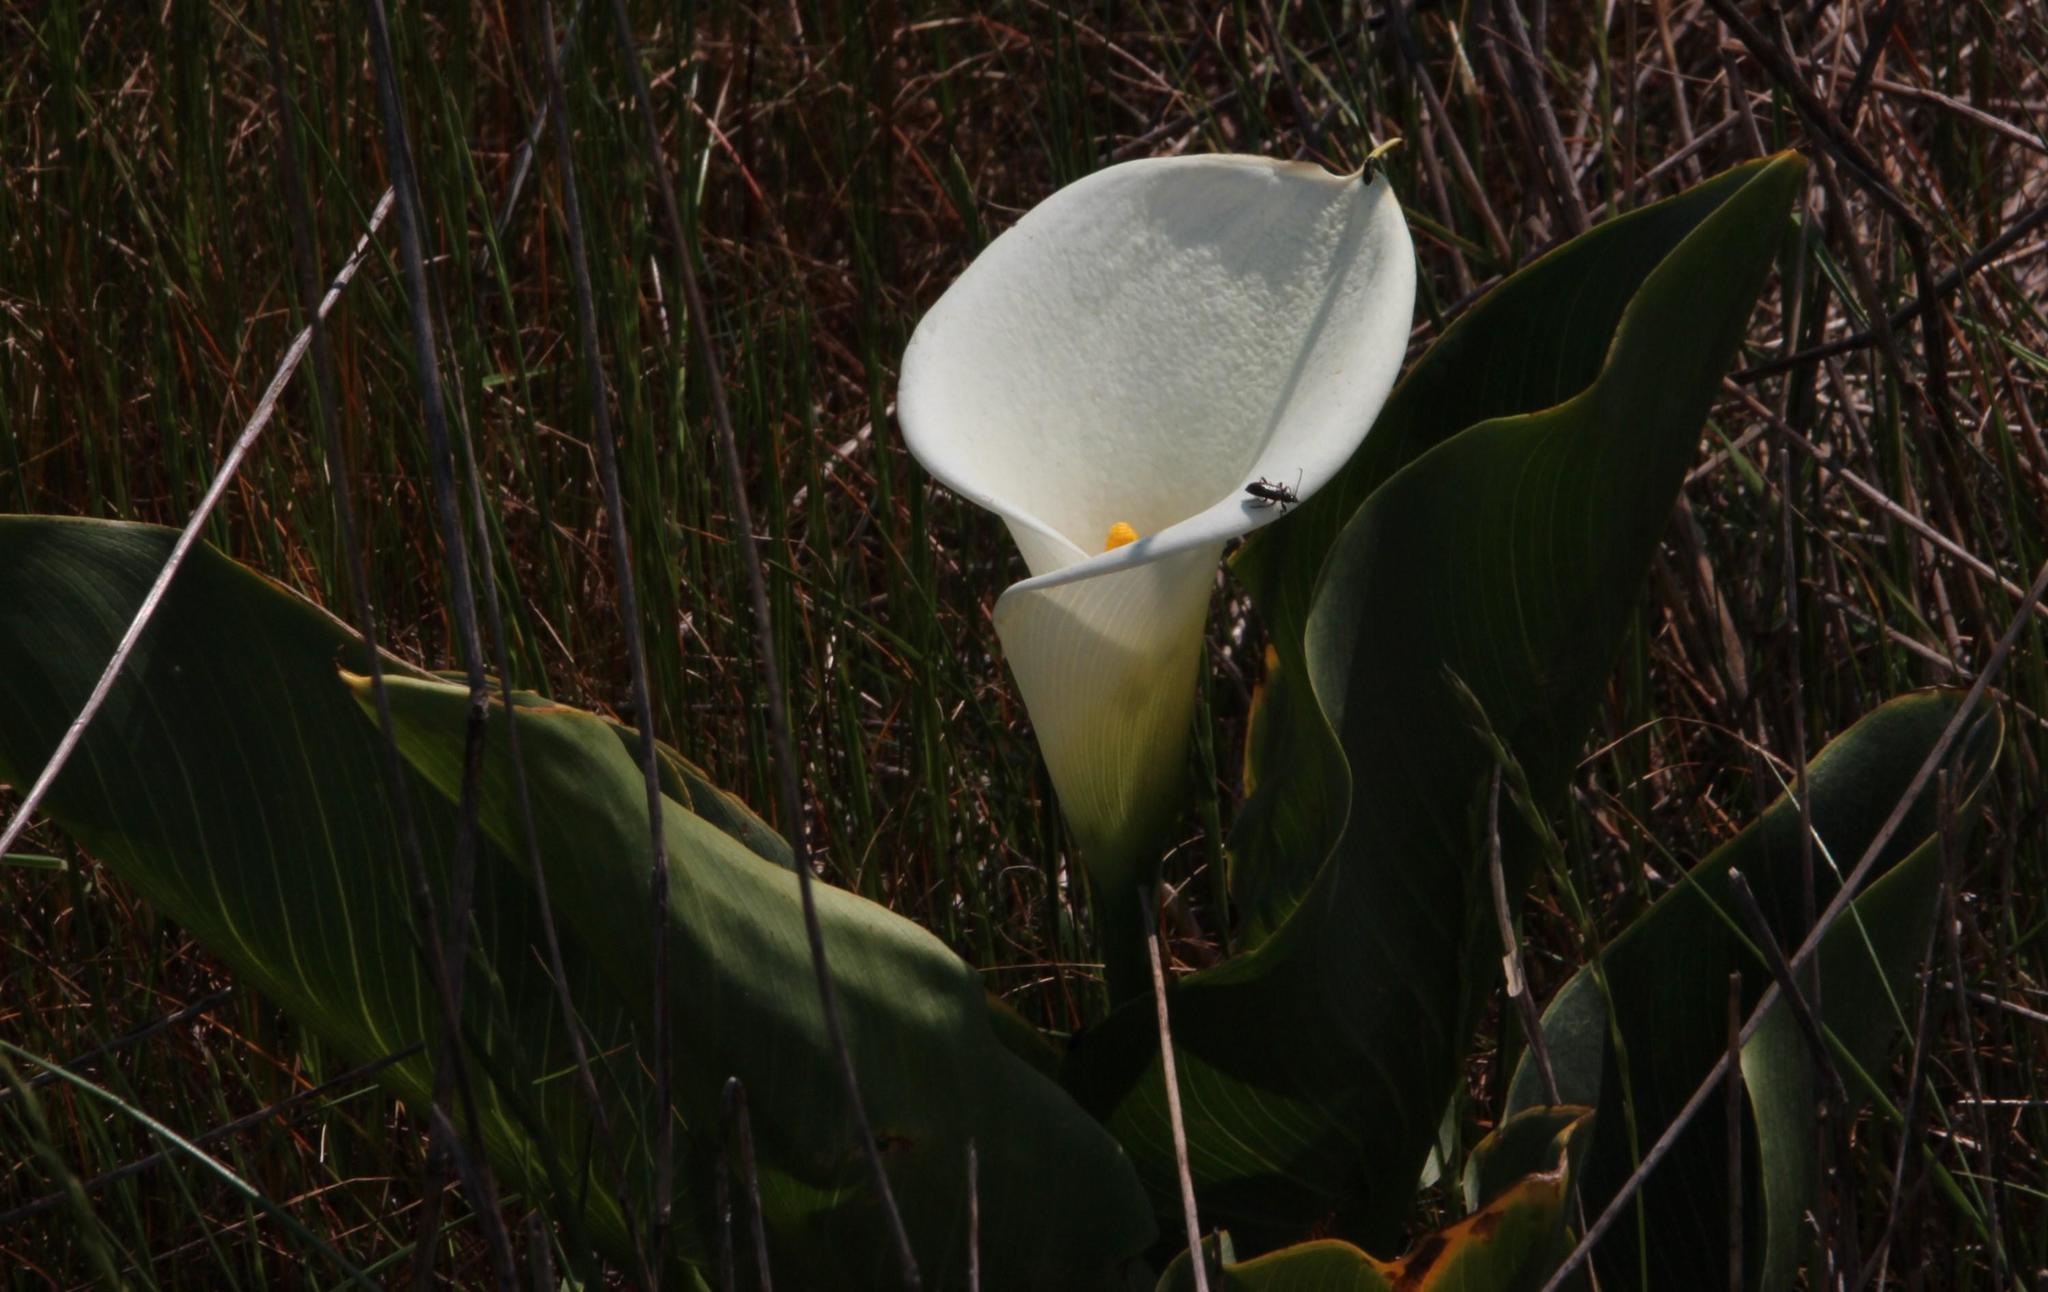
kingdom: Plantae
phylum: Tracheophyta
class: Liliopsida
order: Alismatales
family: Araceae
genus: Zantedeschia
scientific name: Zantedeschia aethiopica
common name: Altar-lily
